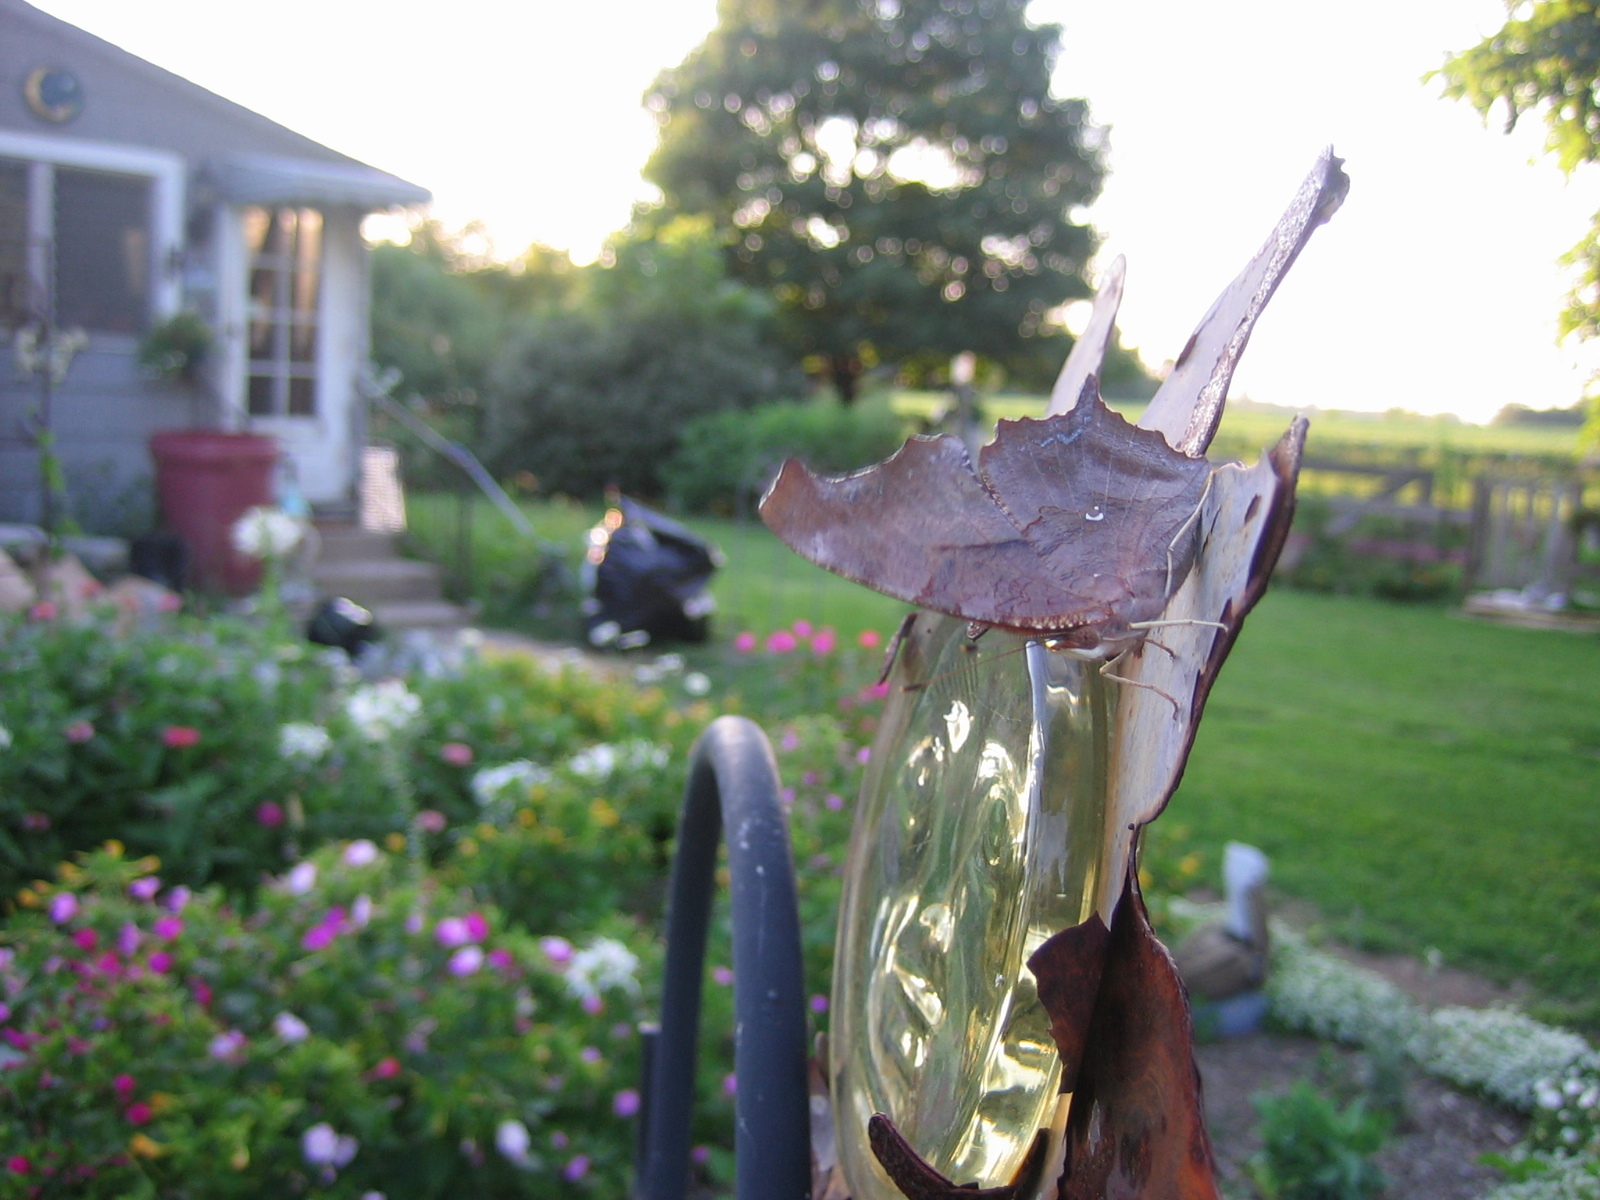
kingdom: Animalia
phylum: Arthropoda
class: Insecta
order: Lepidoptera
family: Nymphalidae
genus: Polygonia
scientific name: Polygonia interrogationis
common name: Question mark
